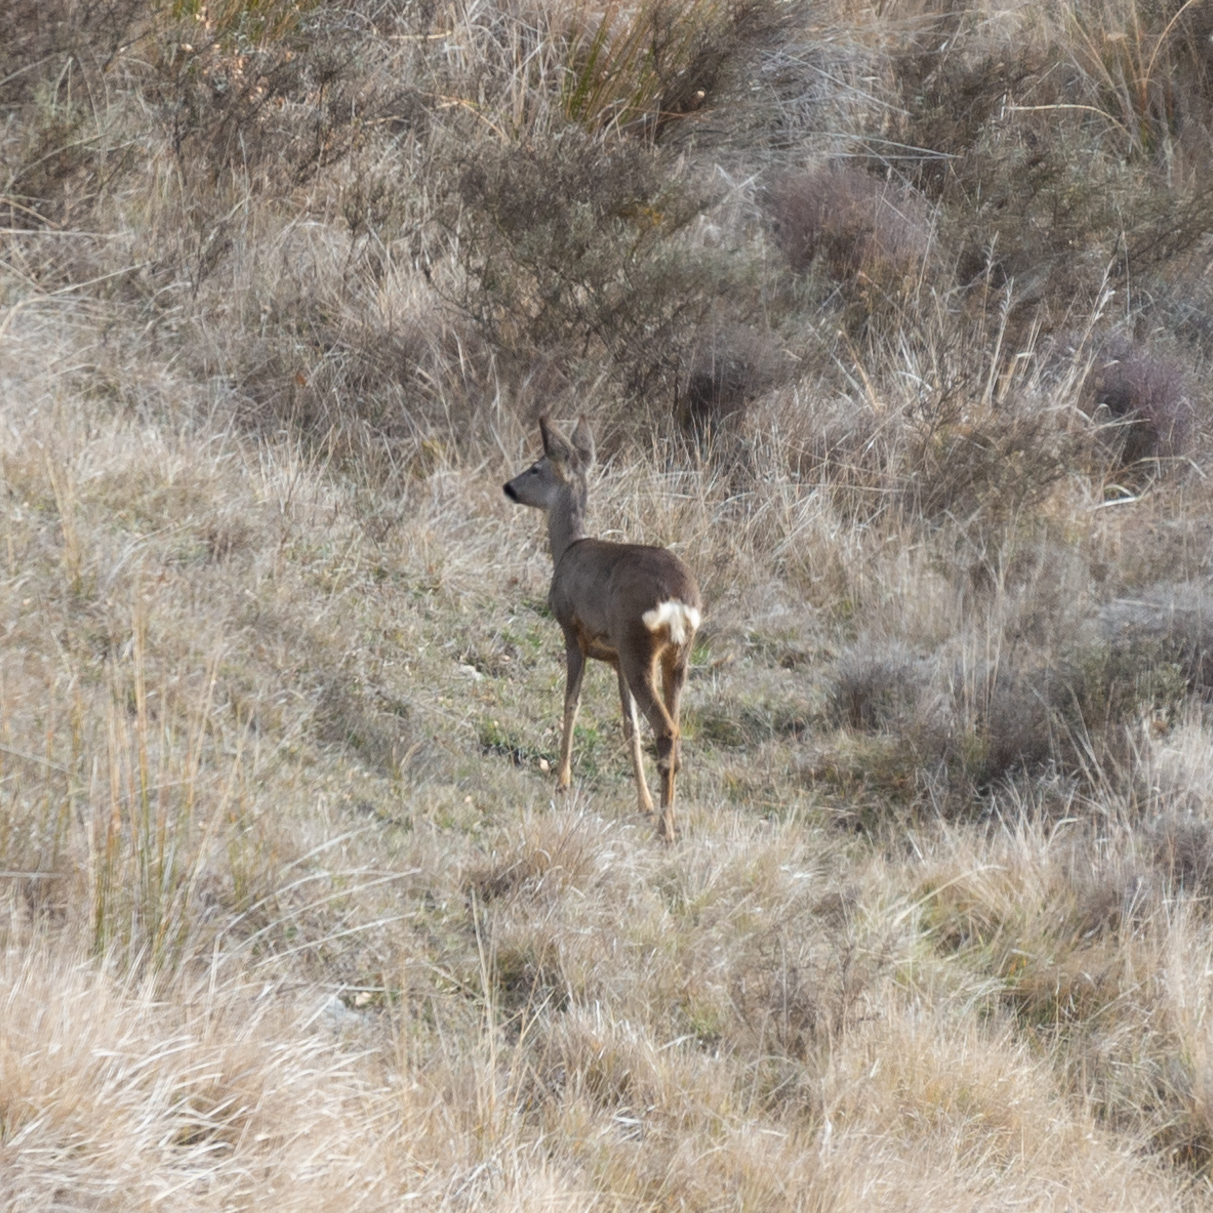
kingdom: Animalia
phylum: Chordata
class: Mammalia
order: Artiodactyla
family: Cervidae
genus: Capreolus
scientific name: Capreolus capreolus
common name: Western roe deer
